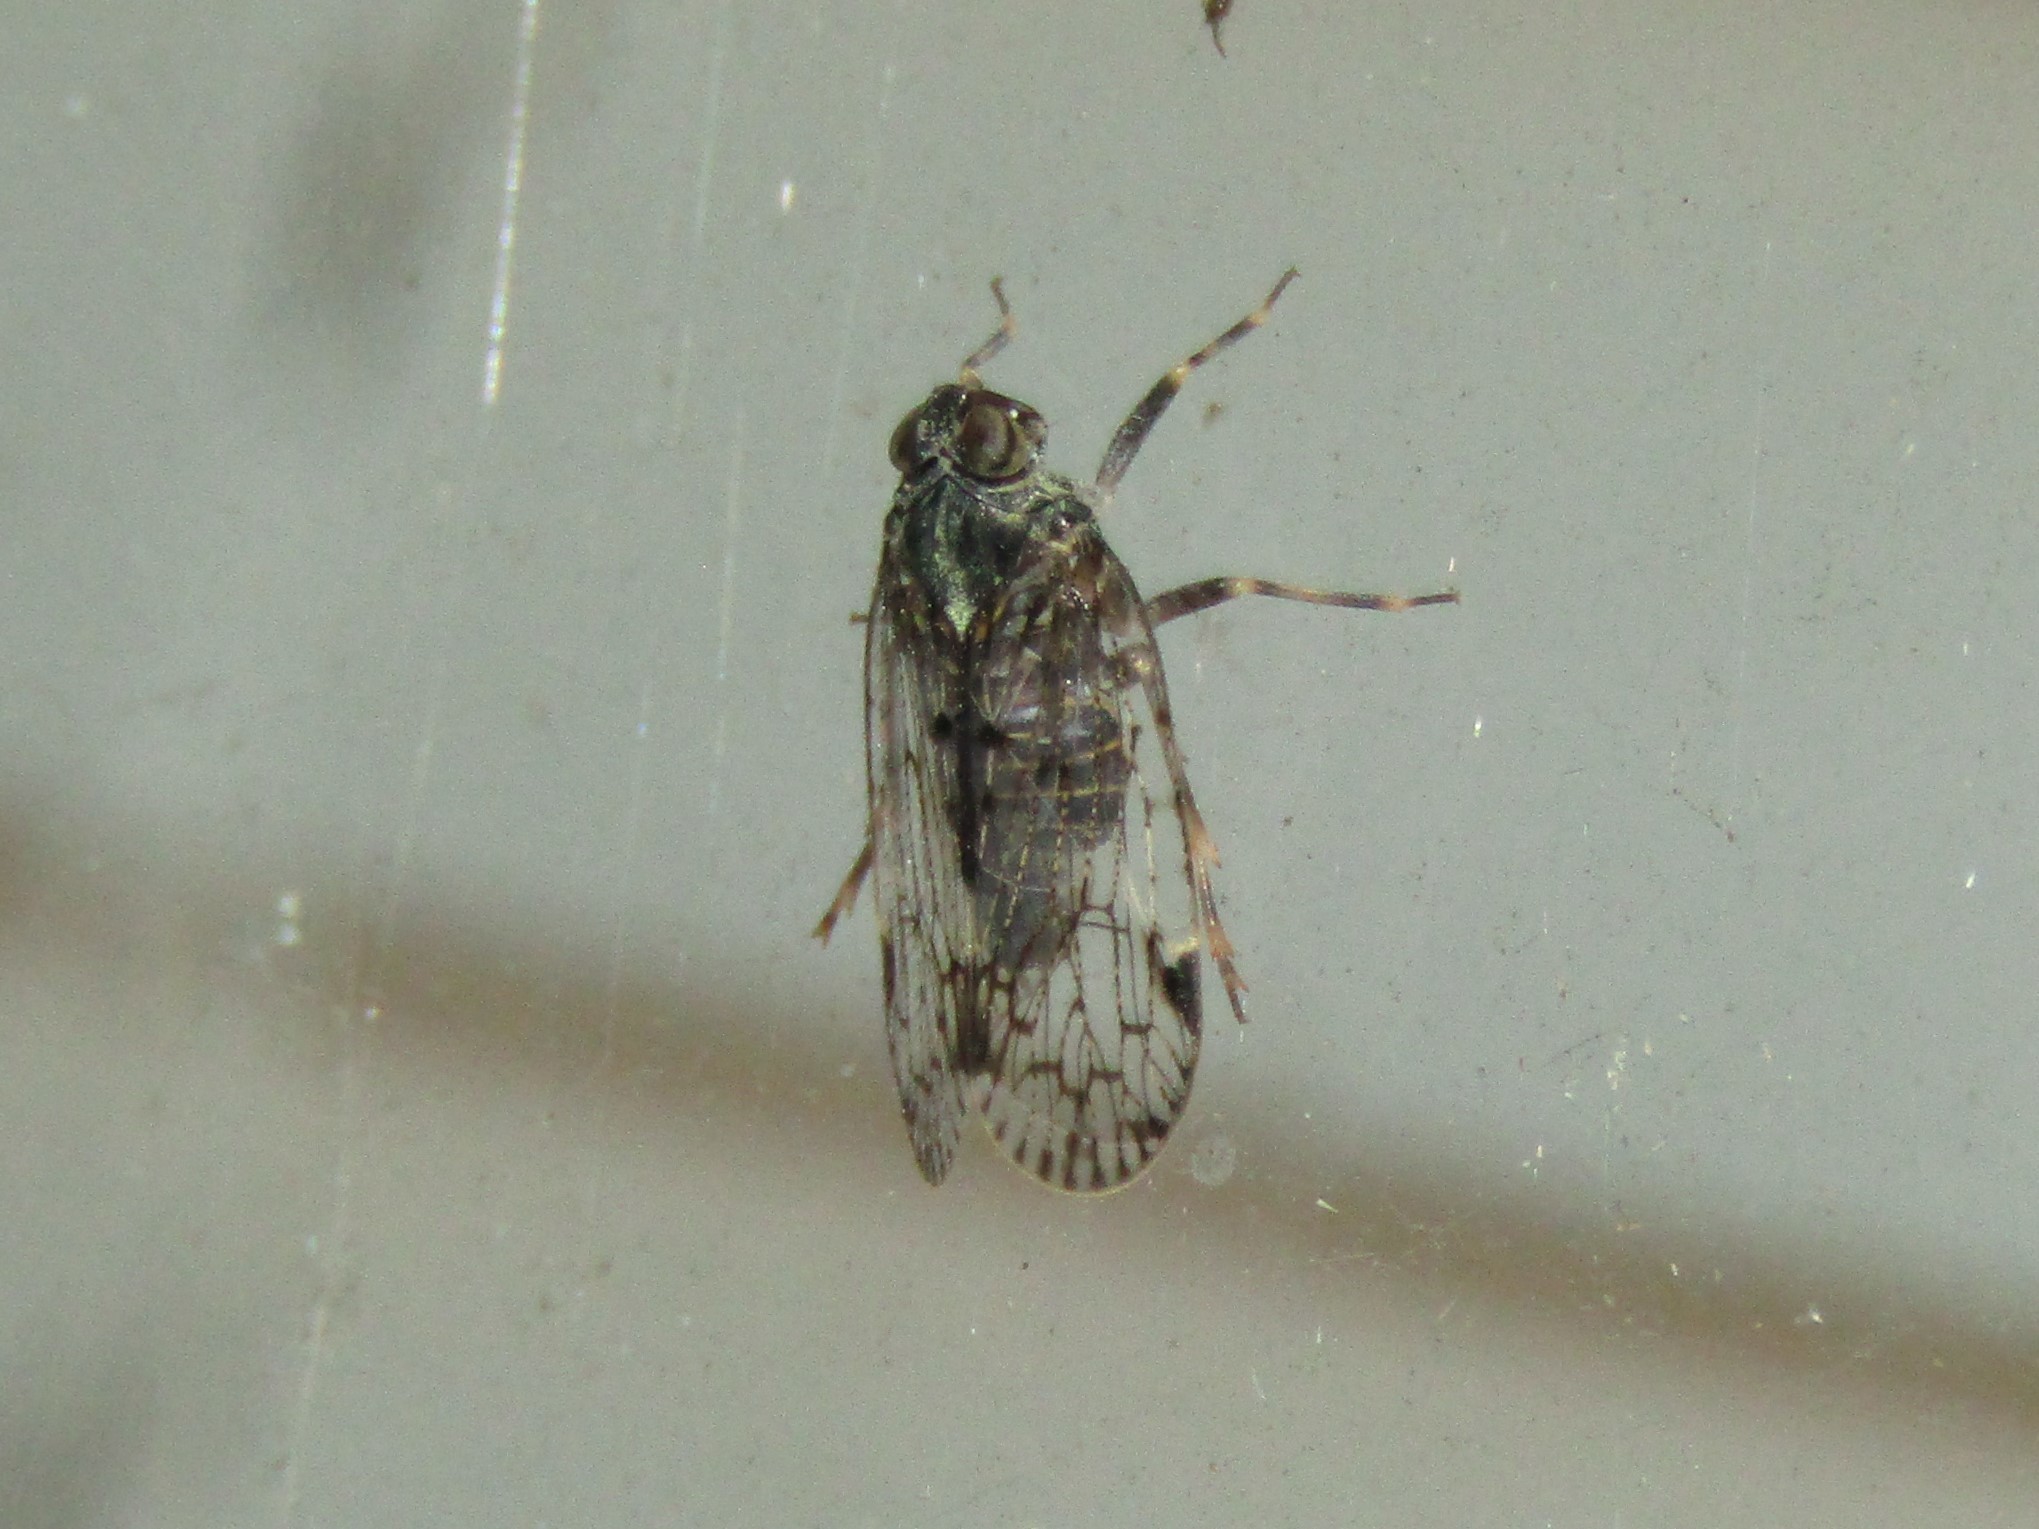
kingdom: Animalia
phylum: Arthropoda
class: Insecta
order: Hemiptera
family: Cixiidae
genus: Melanoliarus
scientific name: Melanoliarus placitus
